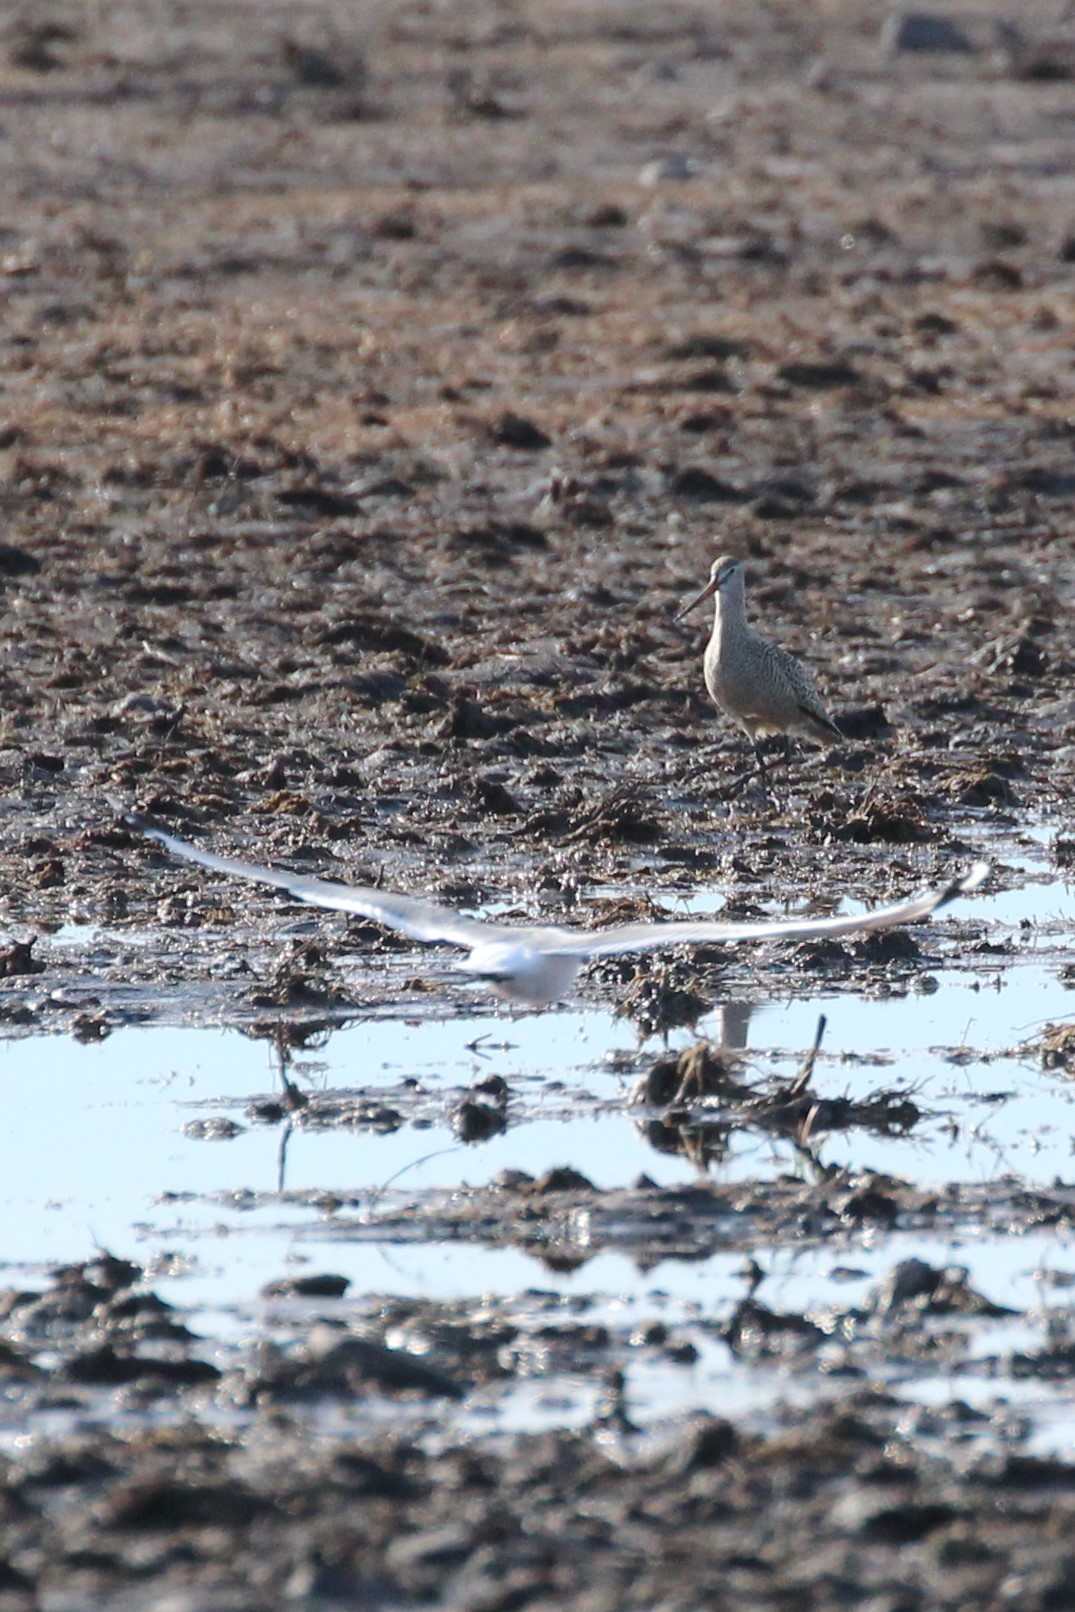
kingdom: Animalia
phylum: Chordata
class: Aves
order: Charadriiformes
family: Scolopacidae
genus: Limosa
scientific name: Limosa fedoa
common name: Marbled godwit
